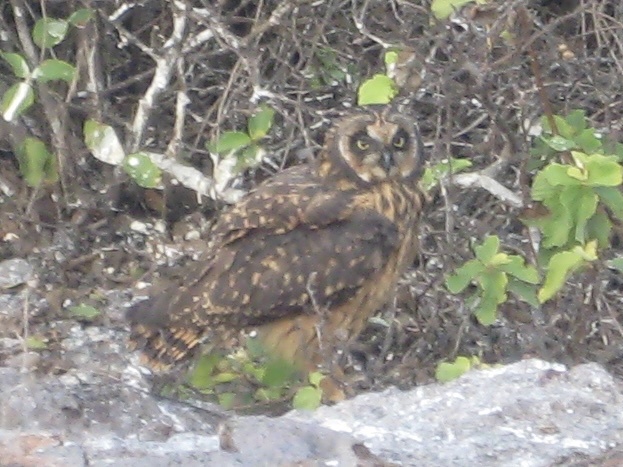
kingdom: Animalia
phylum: Chordata
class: Aves
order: Strigiformes
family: Strigidae
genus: Asio
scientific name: Asio flammeus
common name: Short-eared owl
